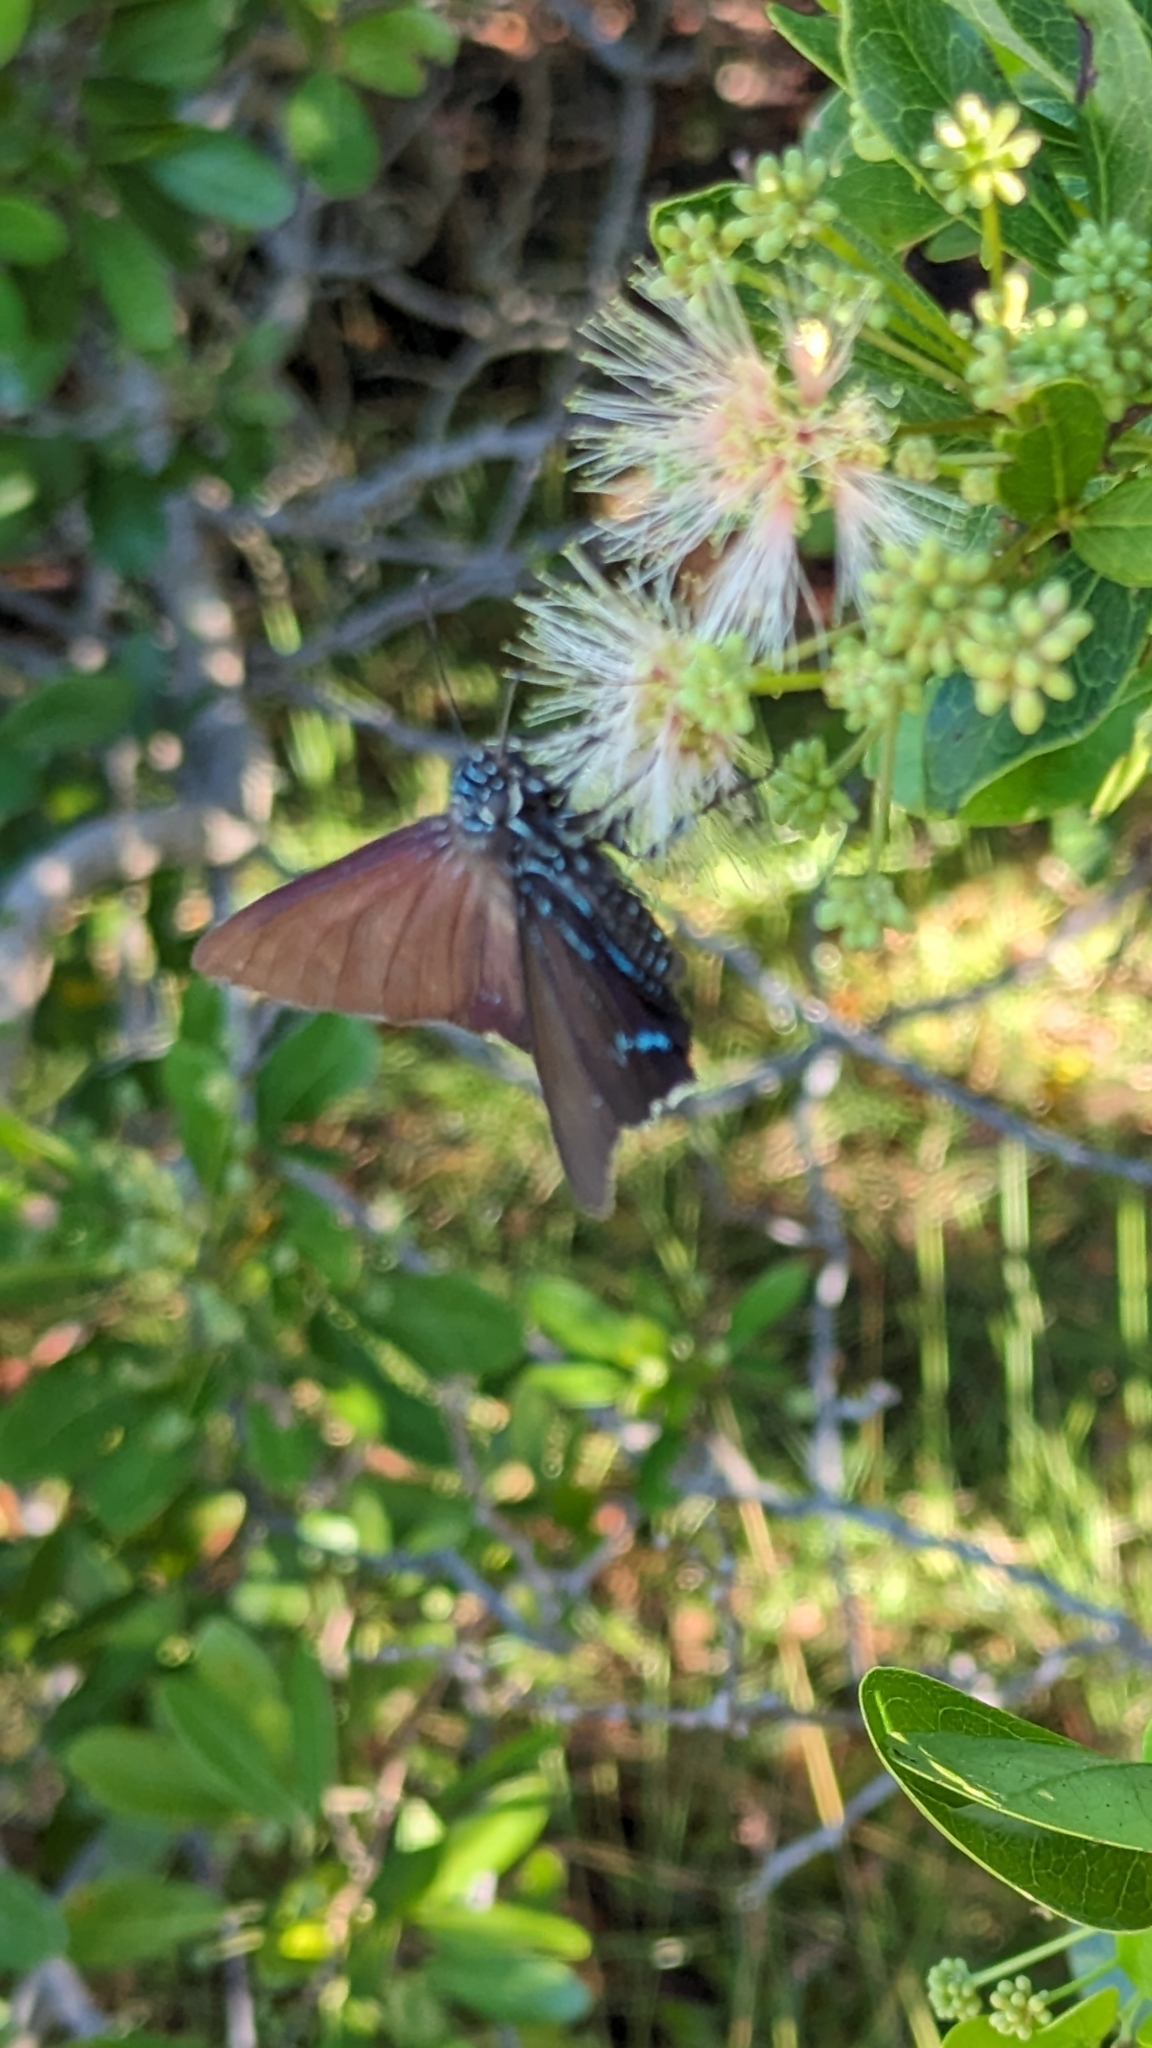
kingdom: Animalia
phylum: Arthropoda
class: Insecta
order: Lepidoptera
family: Hesperiidae
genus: Phocides
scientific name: Phocides pigmalion
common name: Mangrove skipper
